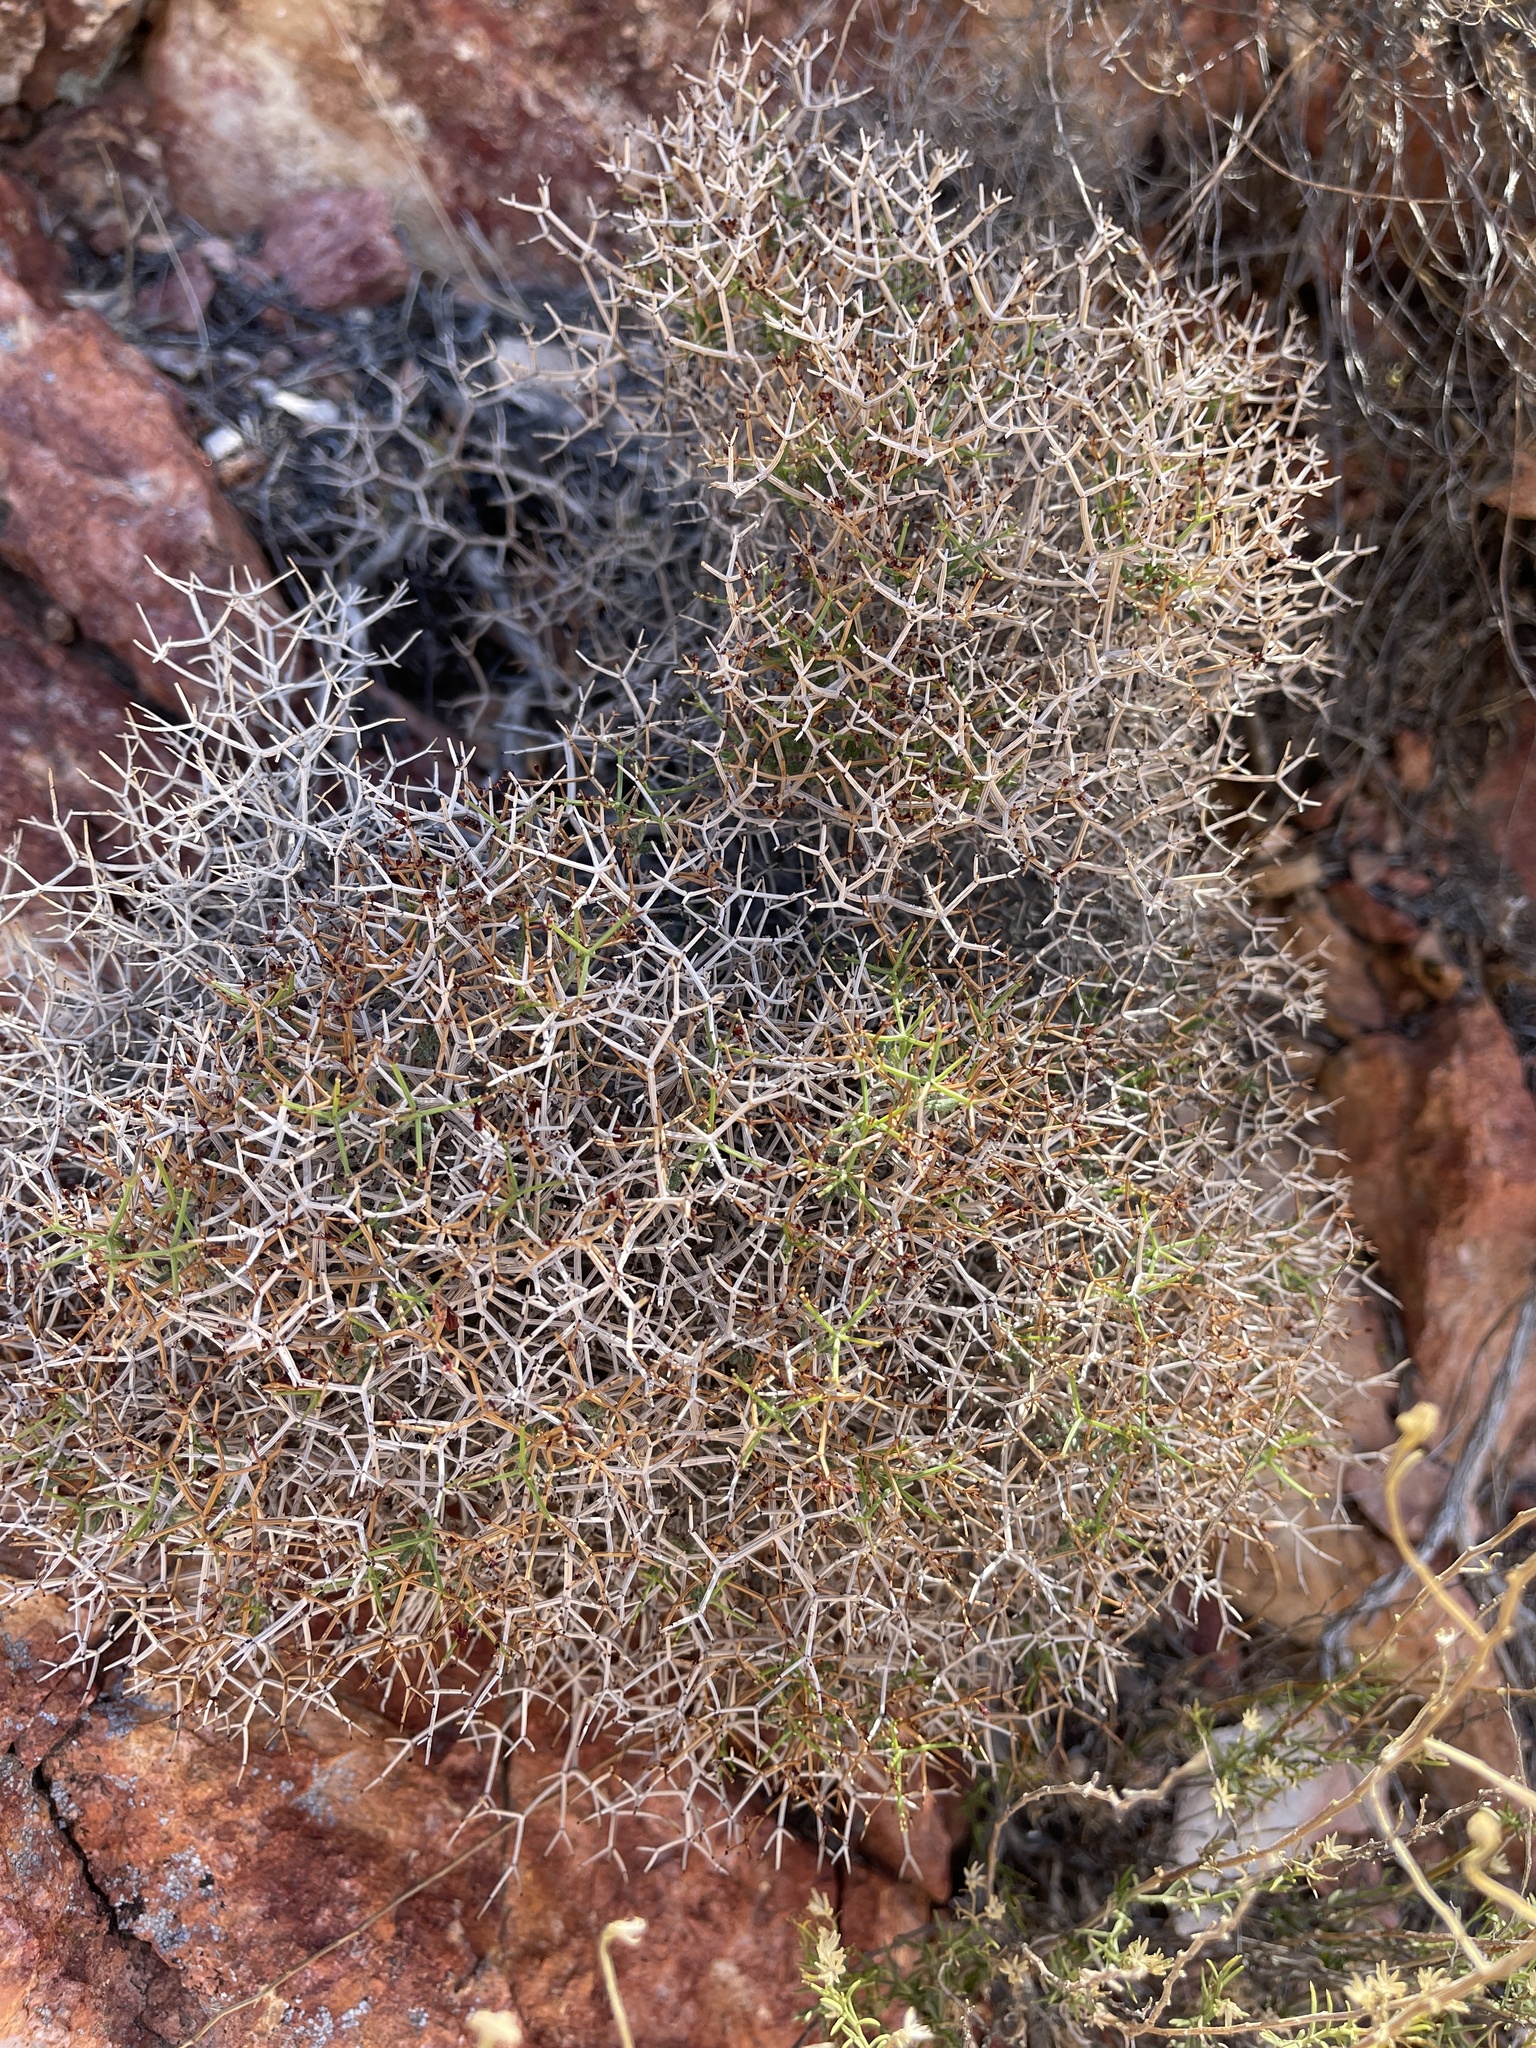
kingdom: Plantae
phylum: Tracheophyta
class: Magnoliopsida
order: Caryophyllales
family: Polygonaceae
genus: Eriogonum
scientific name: Eriogonum heermannii
